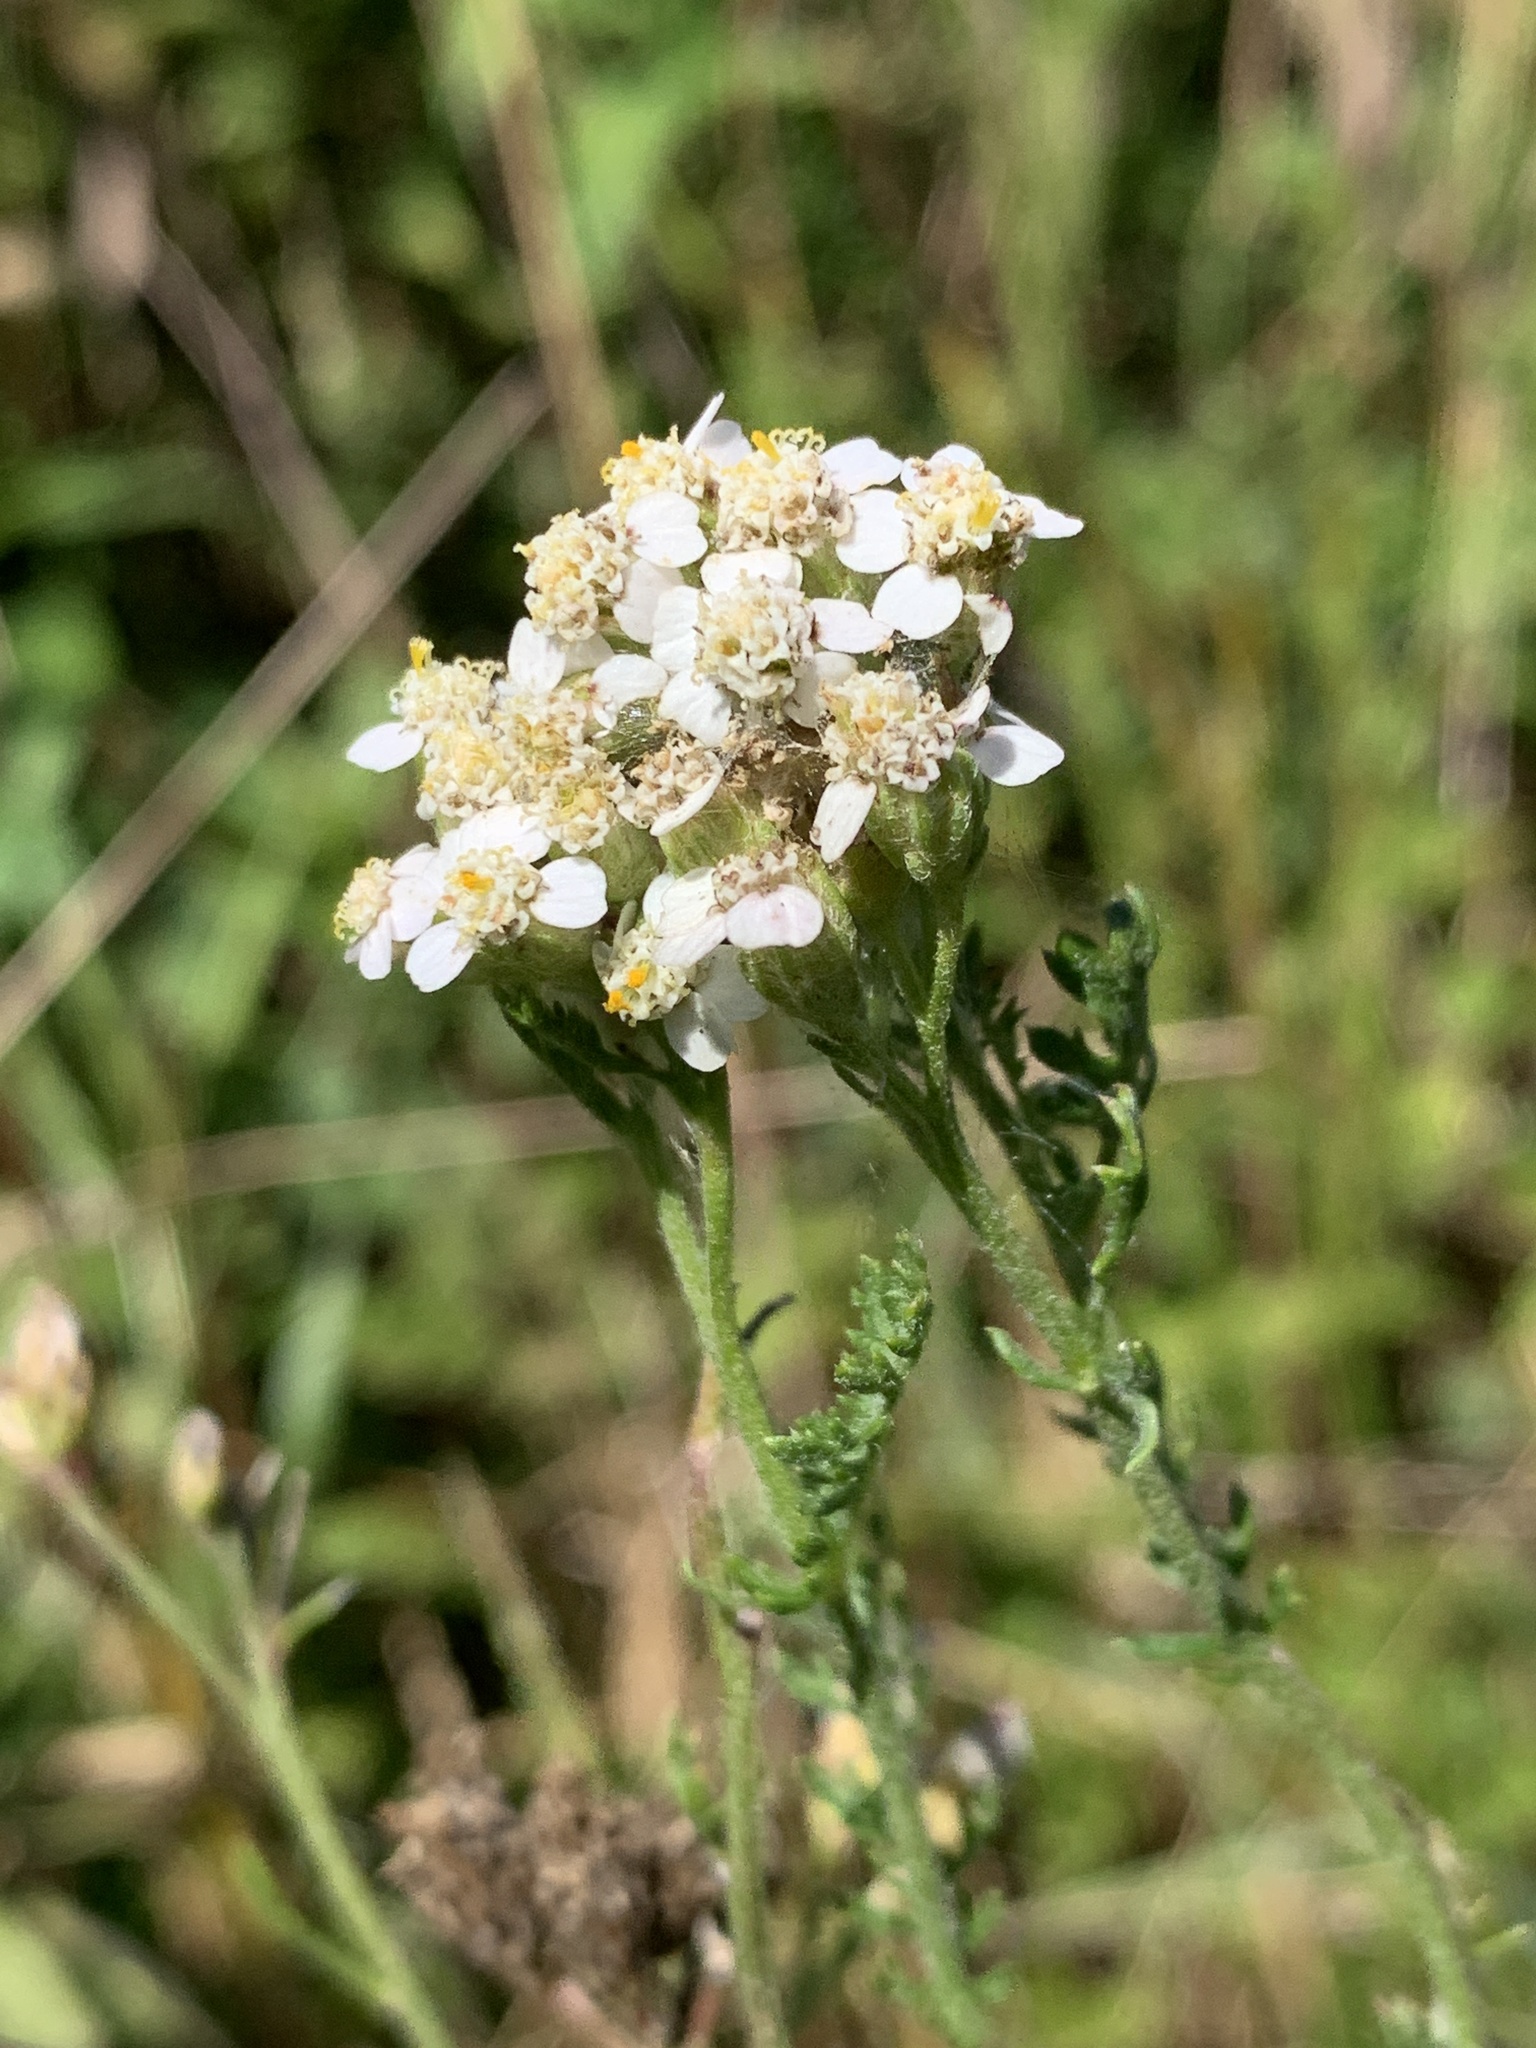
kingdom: Plantae
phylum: Tracheophyta
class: Magnoliopsida
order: Asterales
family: Asteraceae
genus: Achillea
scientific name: Achillea millefolium
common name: Yarrow
